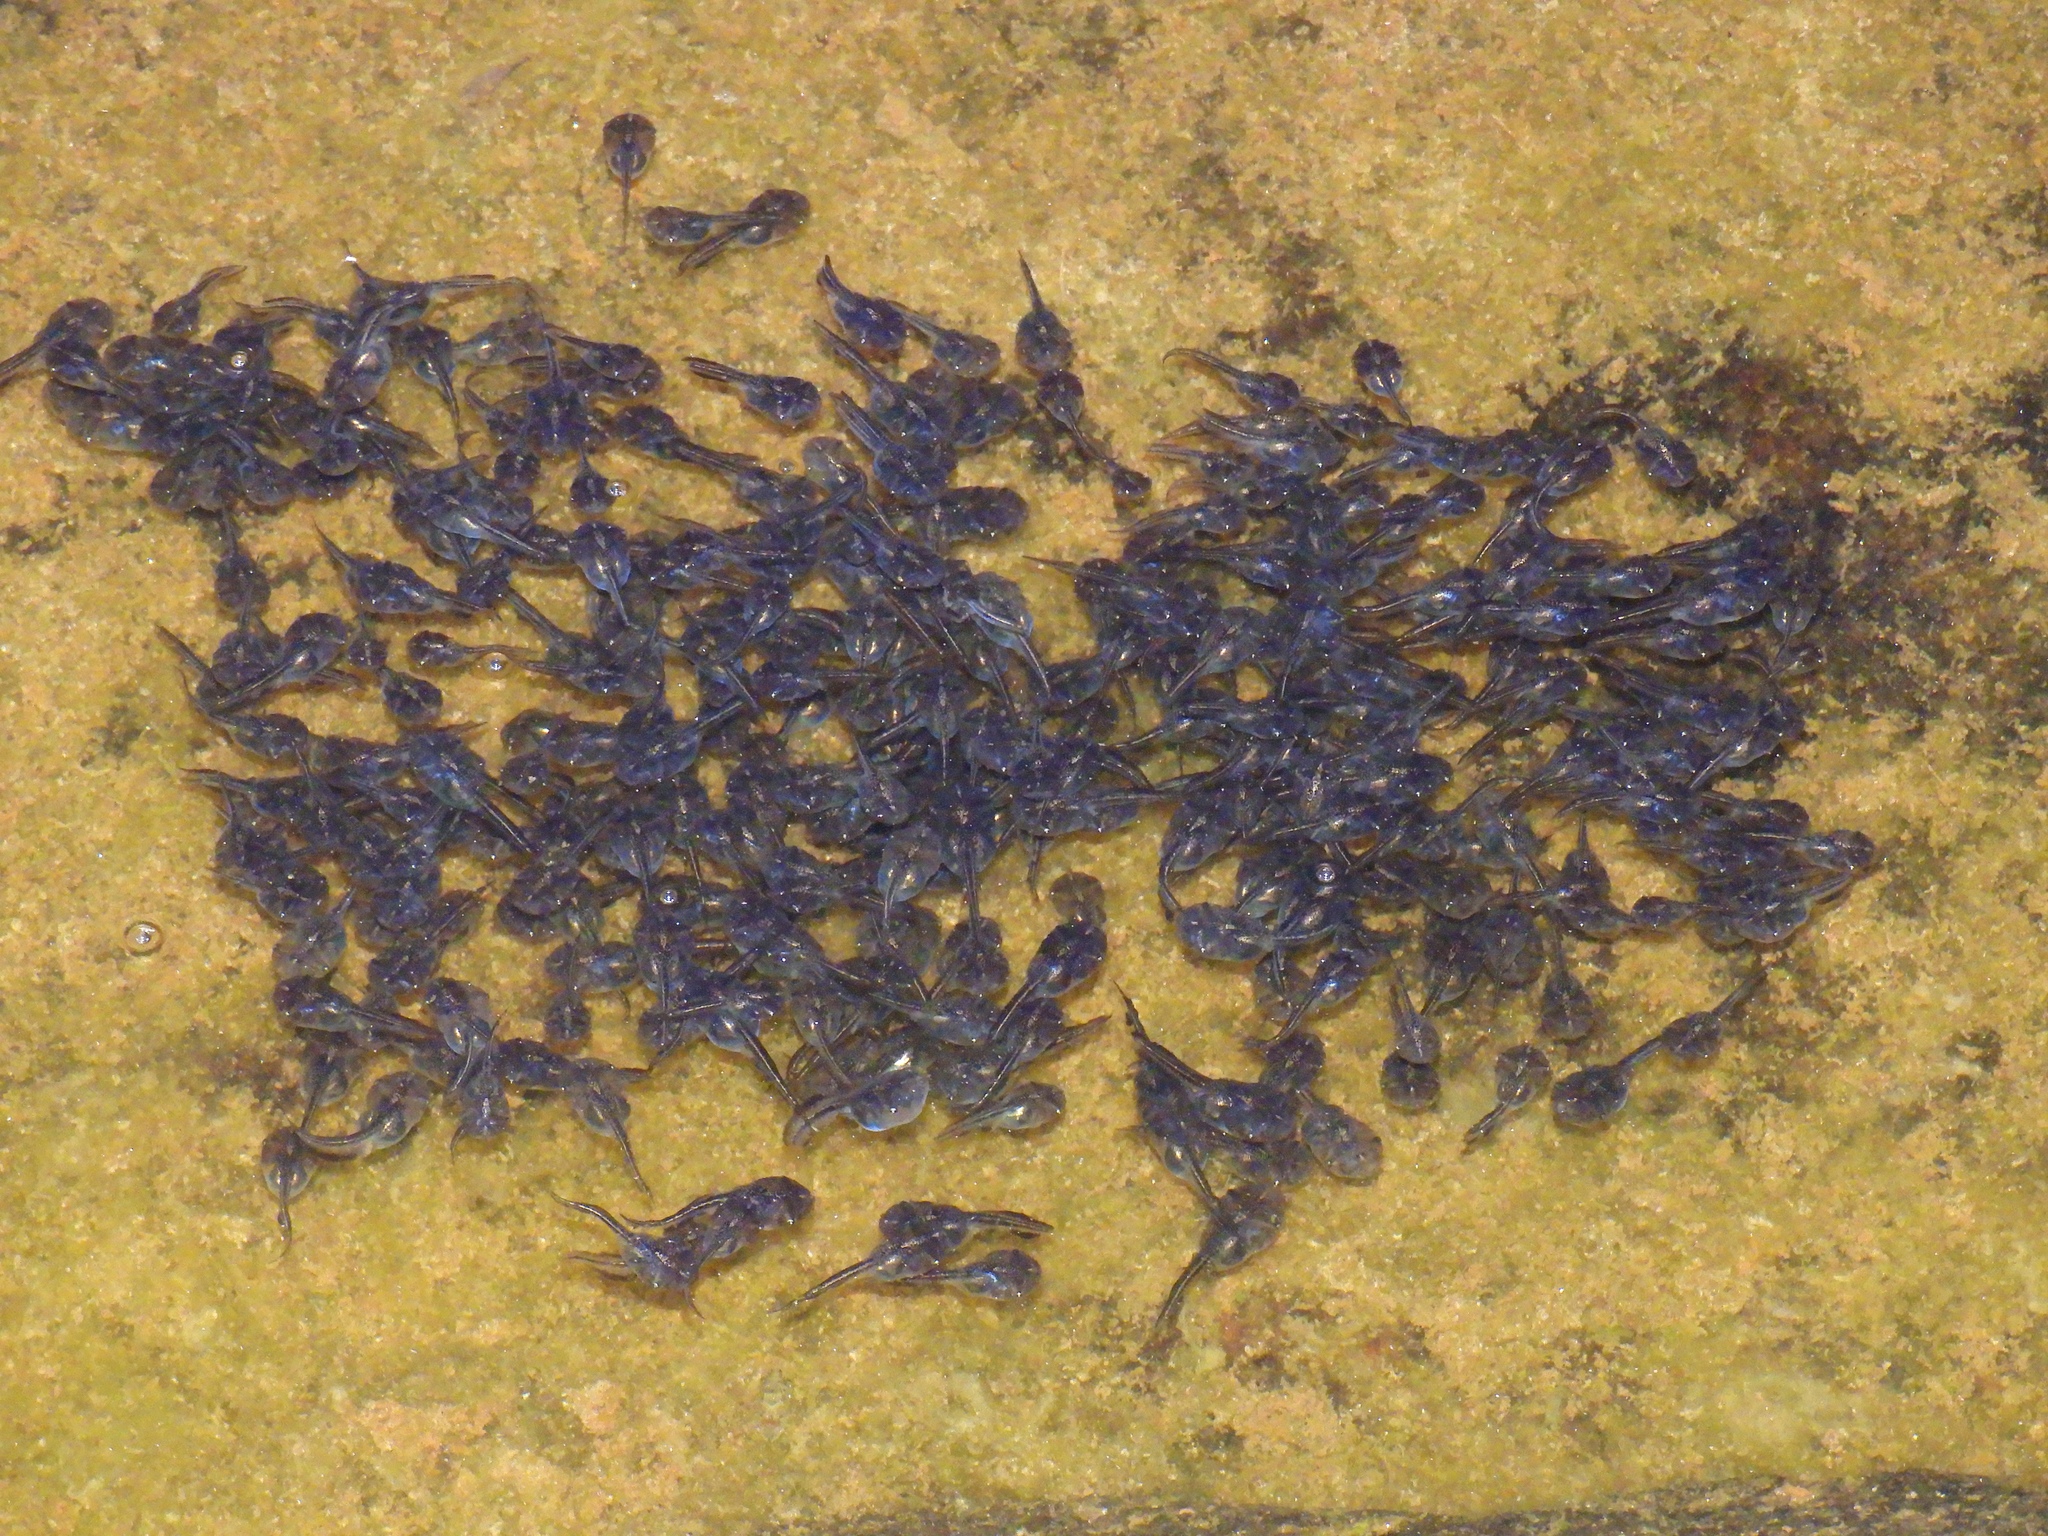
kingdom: Animalia
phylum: Chordata
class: Amphibia
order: Anura
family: Microhylidae
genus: Phrynomantis
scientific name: Phrynomantis annectens
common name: Marbled rubber frog
